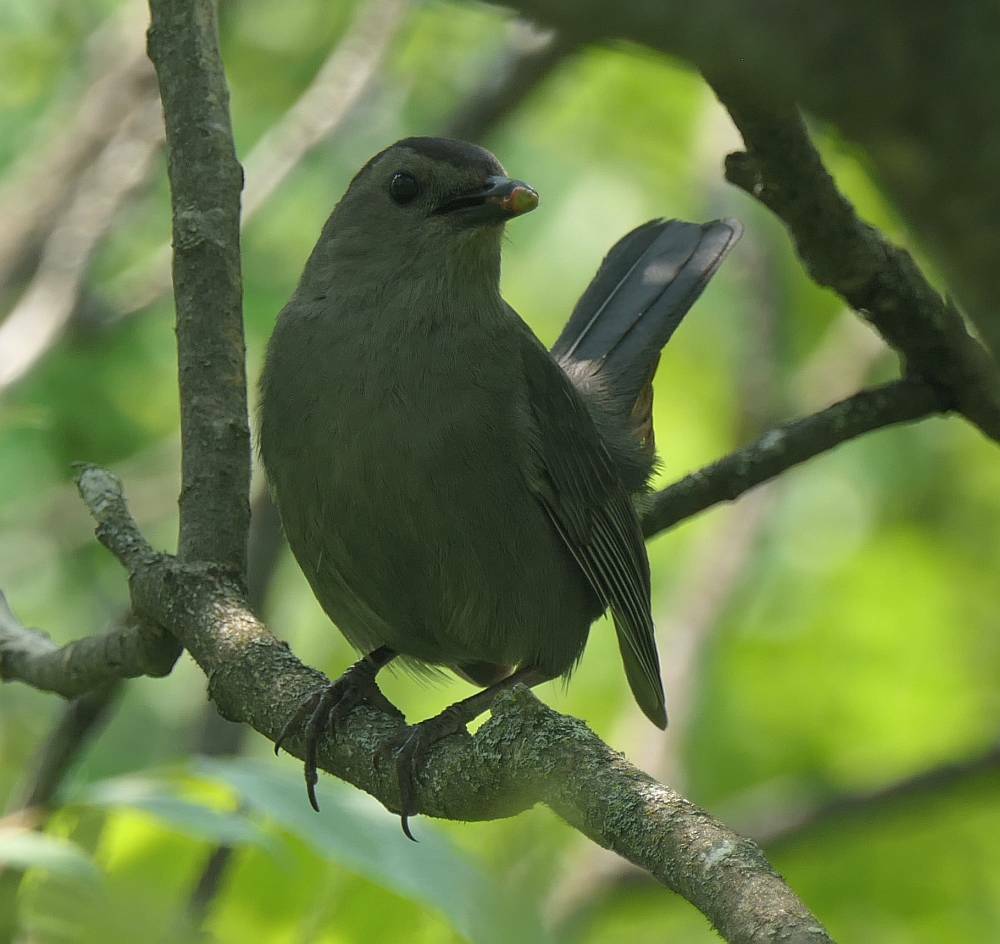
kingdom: Animalia
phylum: Chordata
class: Aves
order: Passeriformes
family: Mimidae
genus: Dumetella
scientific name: Dumetella carolinensis
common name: Gray catbird
